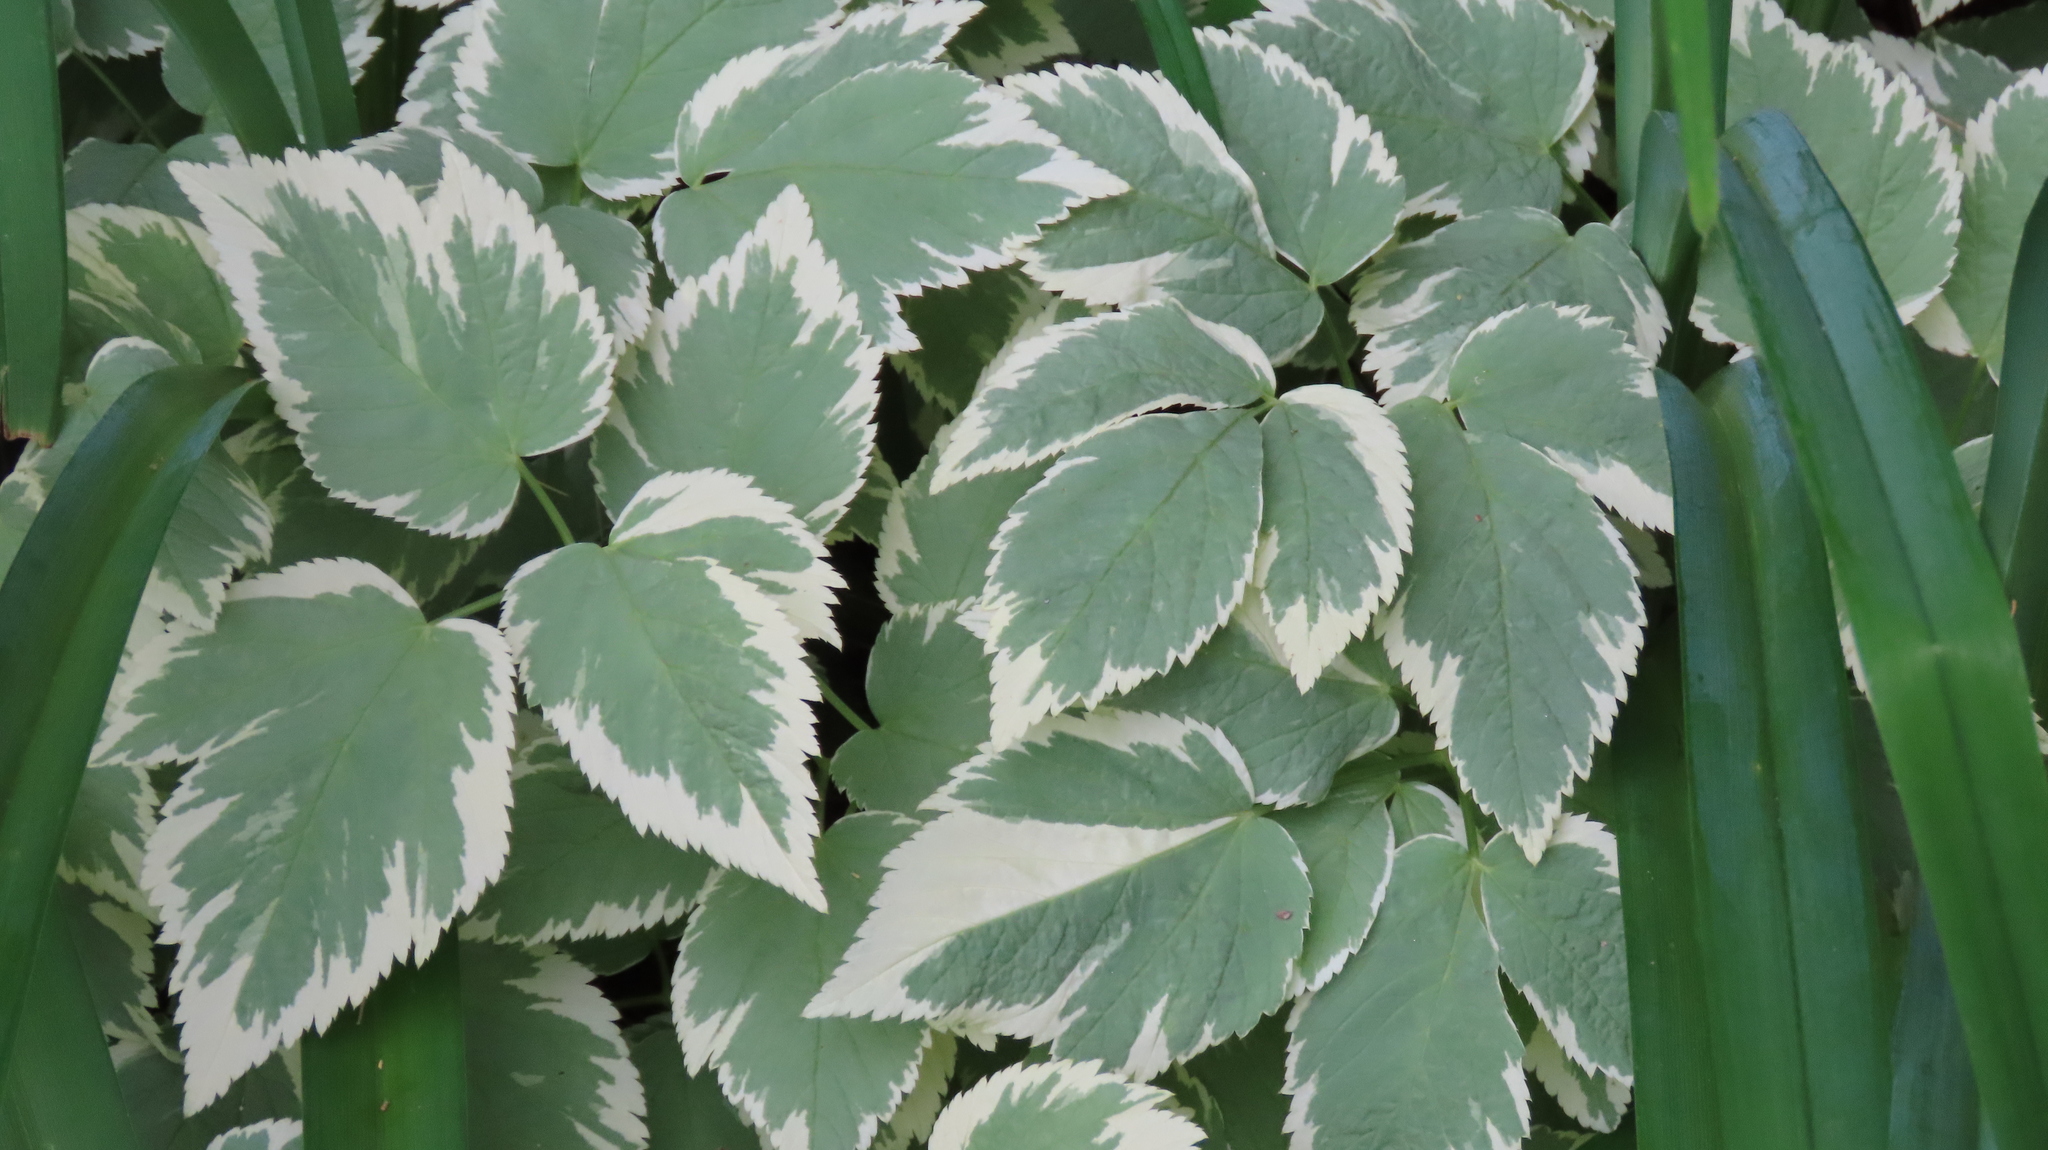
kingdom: Plantae
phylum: Tracheophyta
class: Magnoliopsida
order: Apiales
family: Apiaceae
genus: Aegopodium
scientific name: Aegopodium podagraria
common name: Ground-elder
